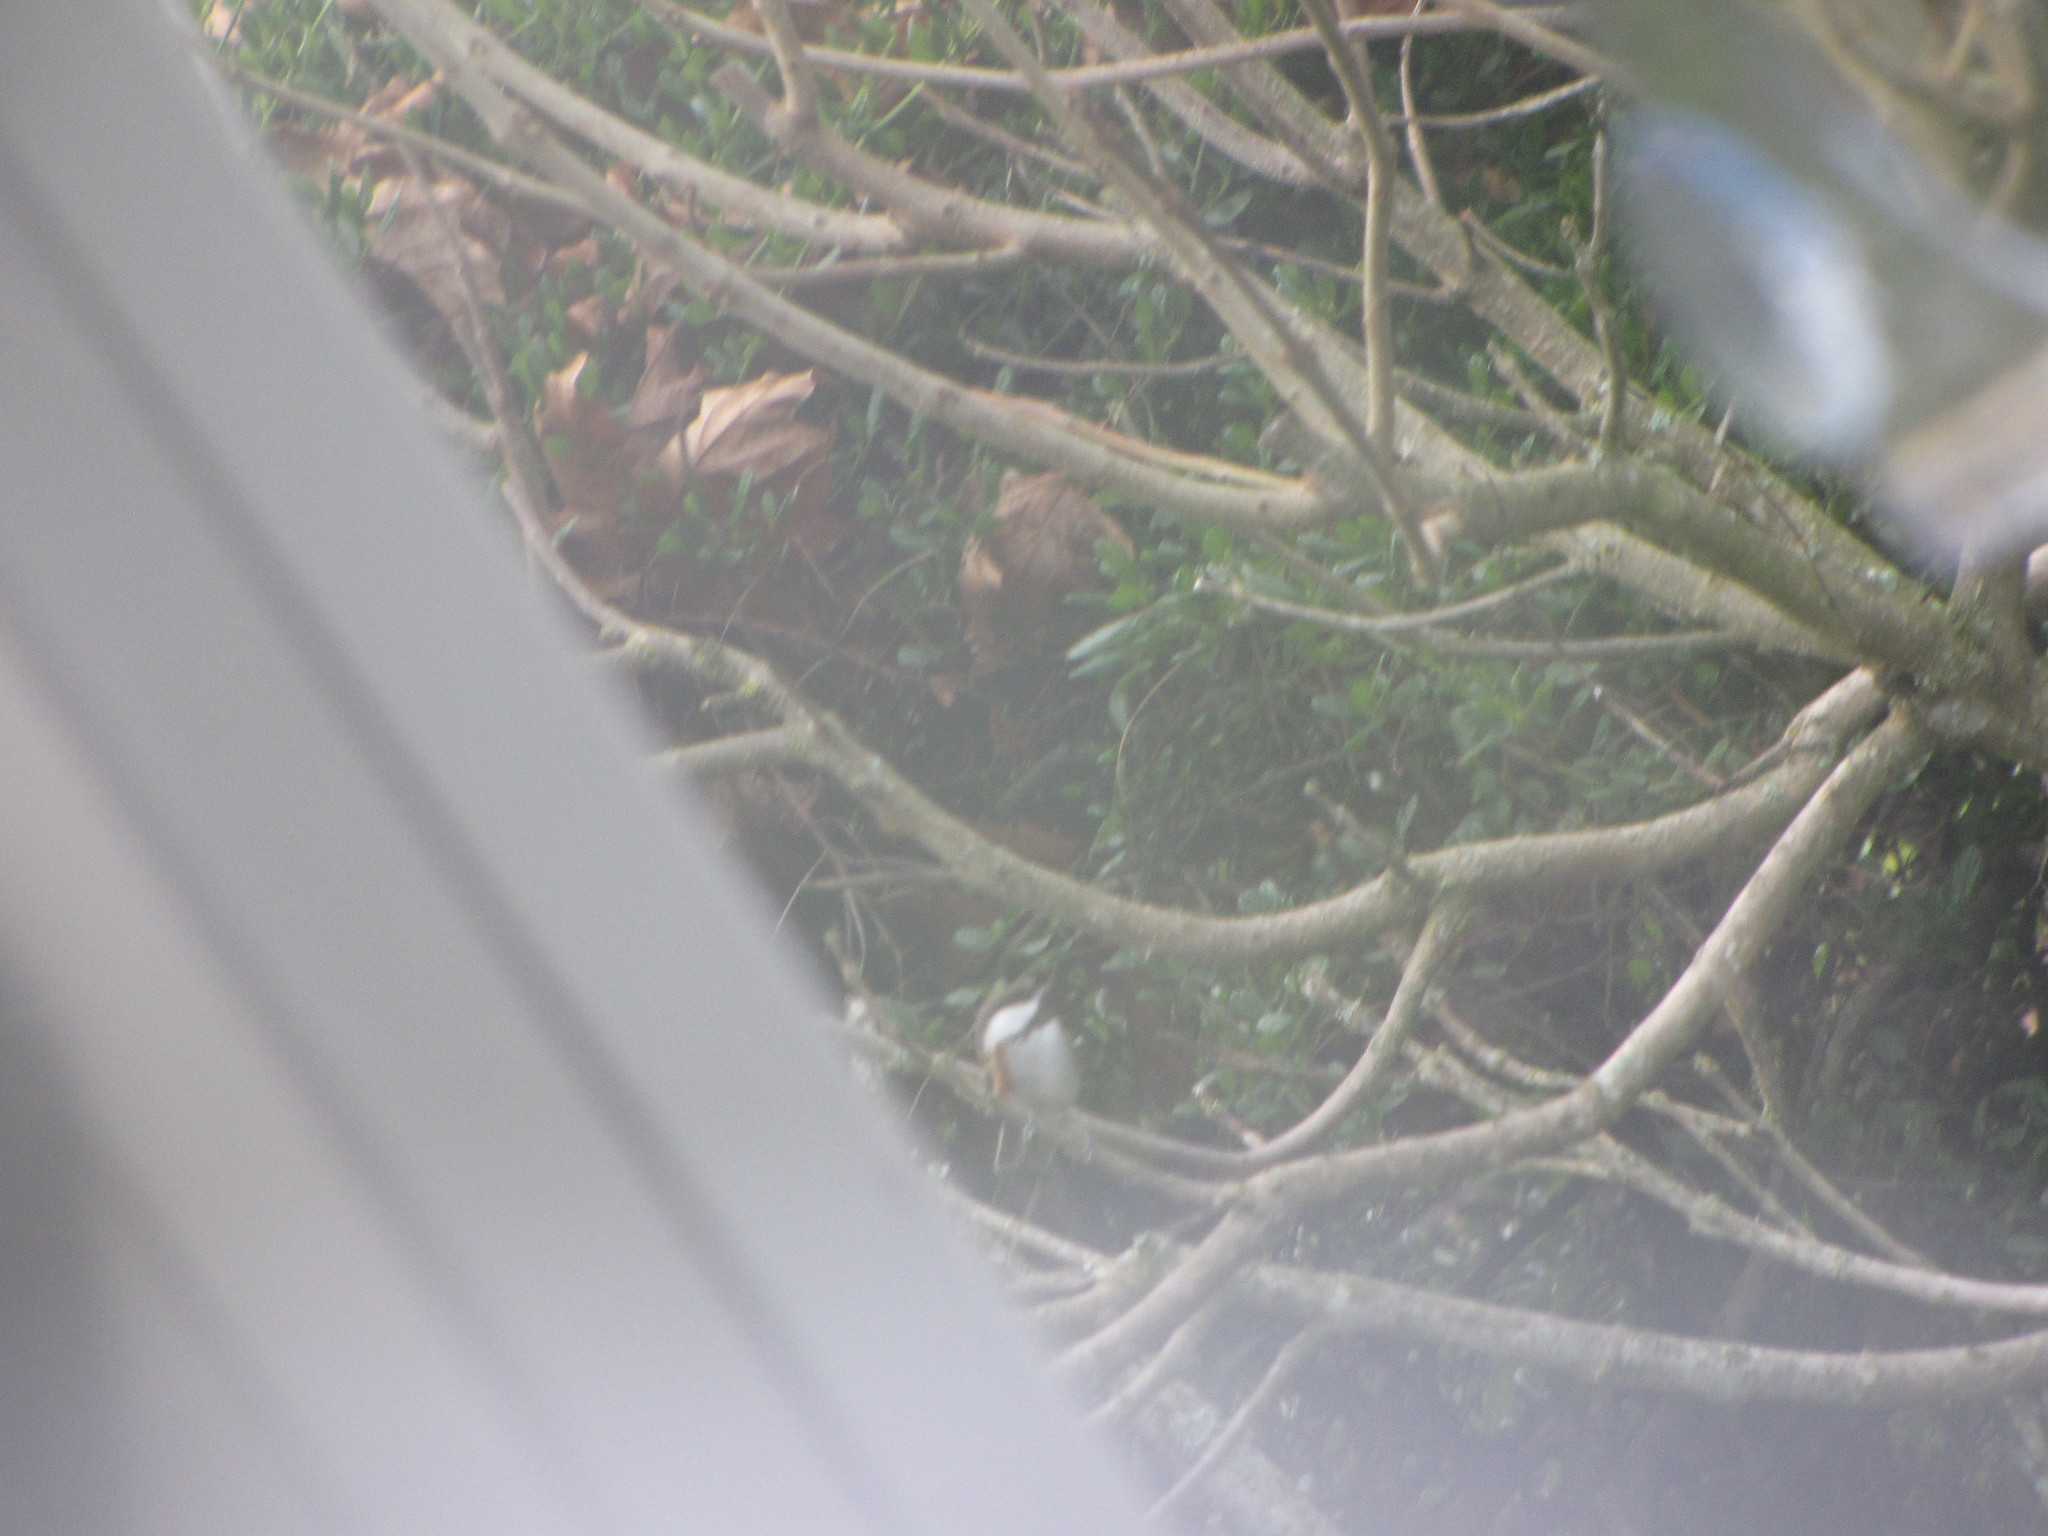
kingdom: Animalia
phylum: Chordata
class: Aves
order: Passeriformes
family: Paridae
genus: Poecile
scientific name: Poecile rufescens
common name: Chestnut-backed chickadee
